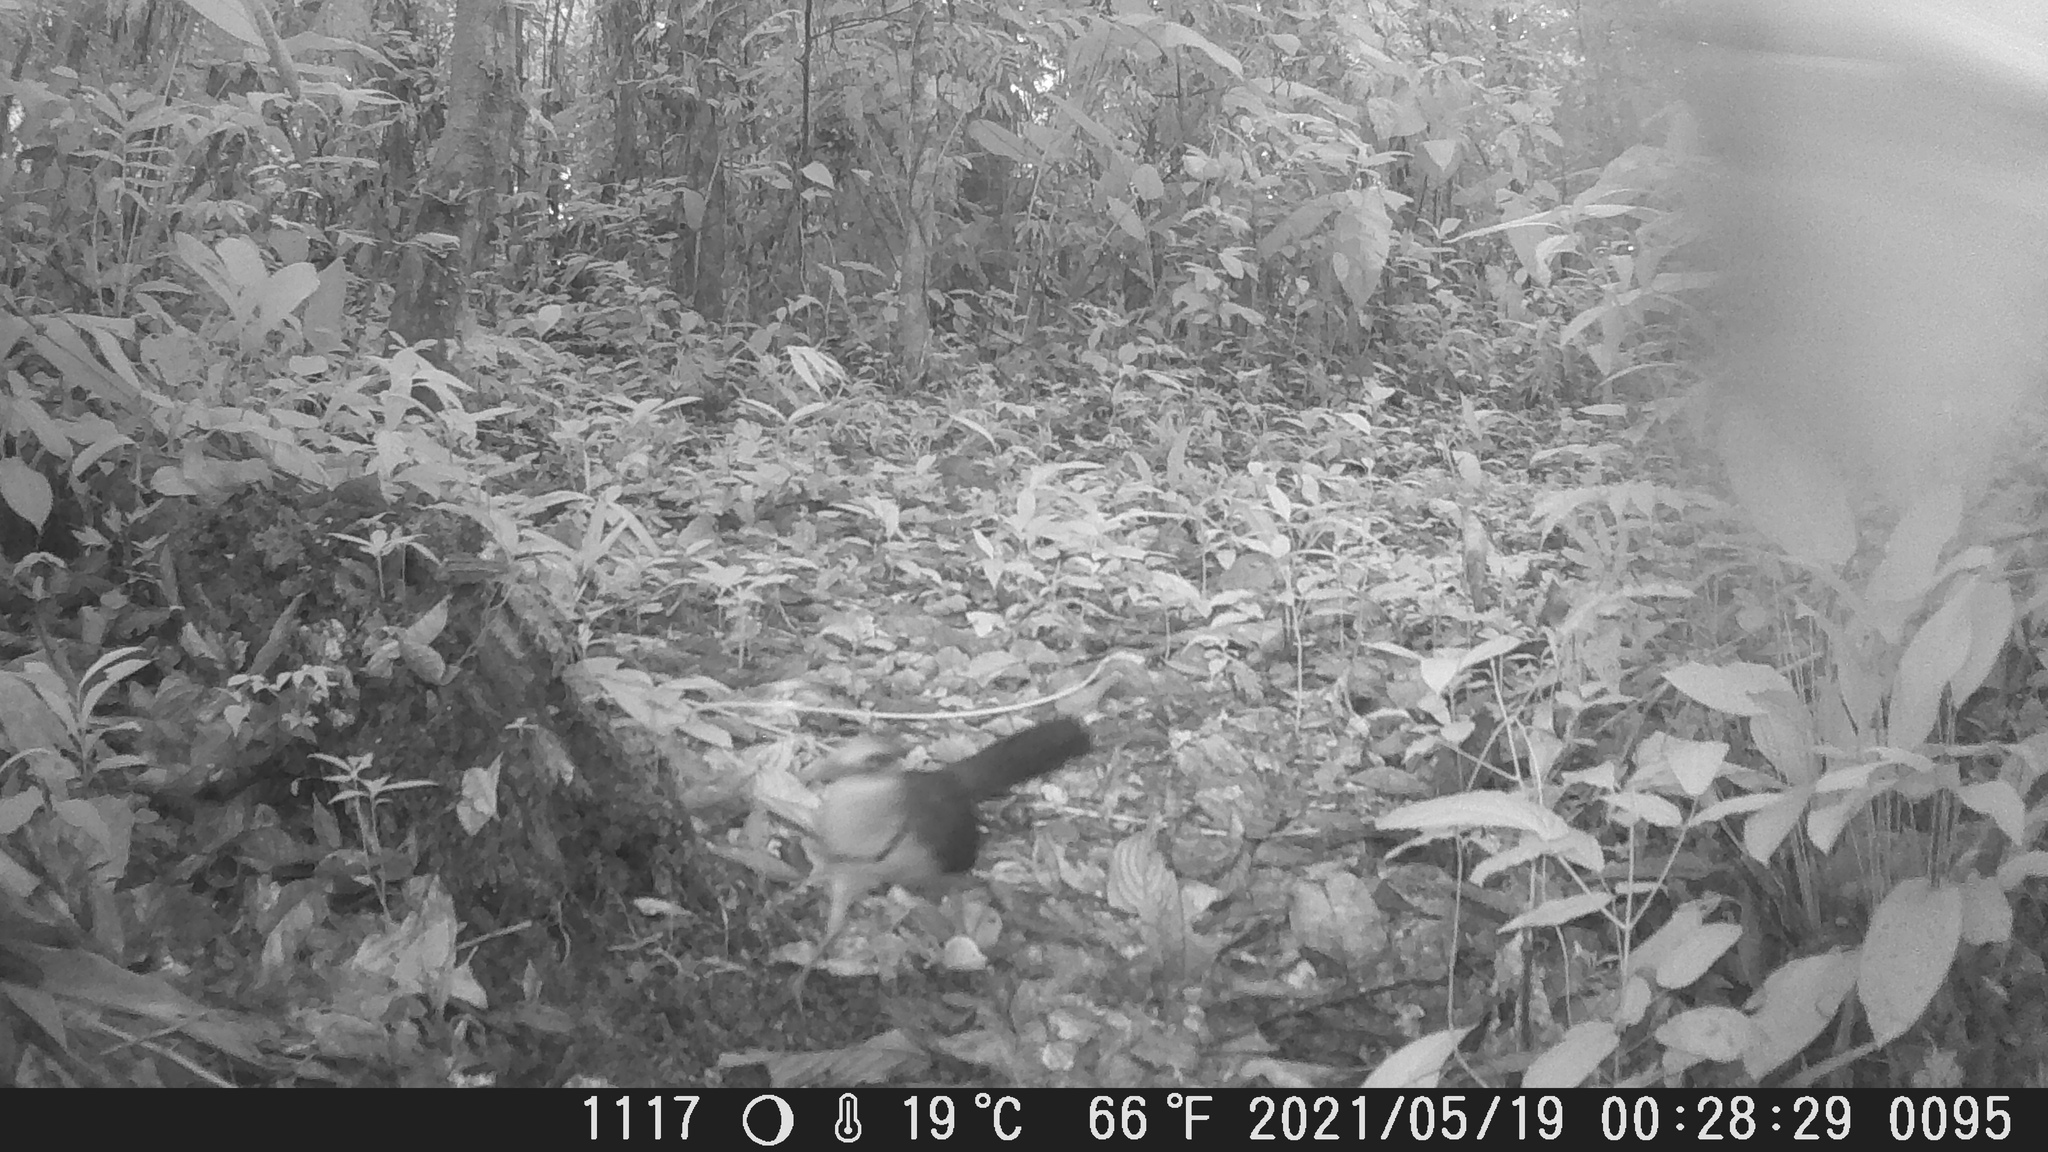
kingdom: Animalia
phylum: Chordata
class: Aves
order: Cuculiformes
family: Cuculidae
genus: Neomorphus
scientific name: Neomorphus geoffroyi
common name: Rufous-vented ground-cuckoo
